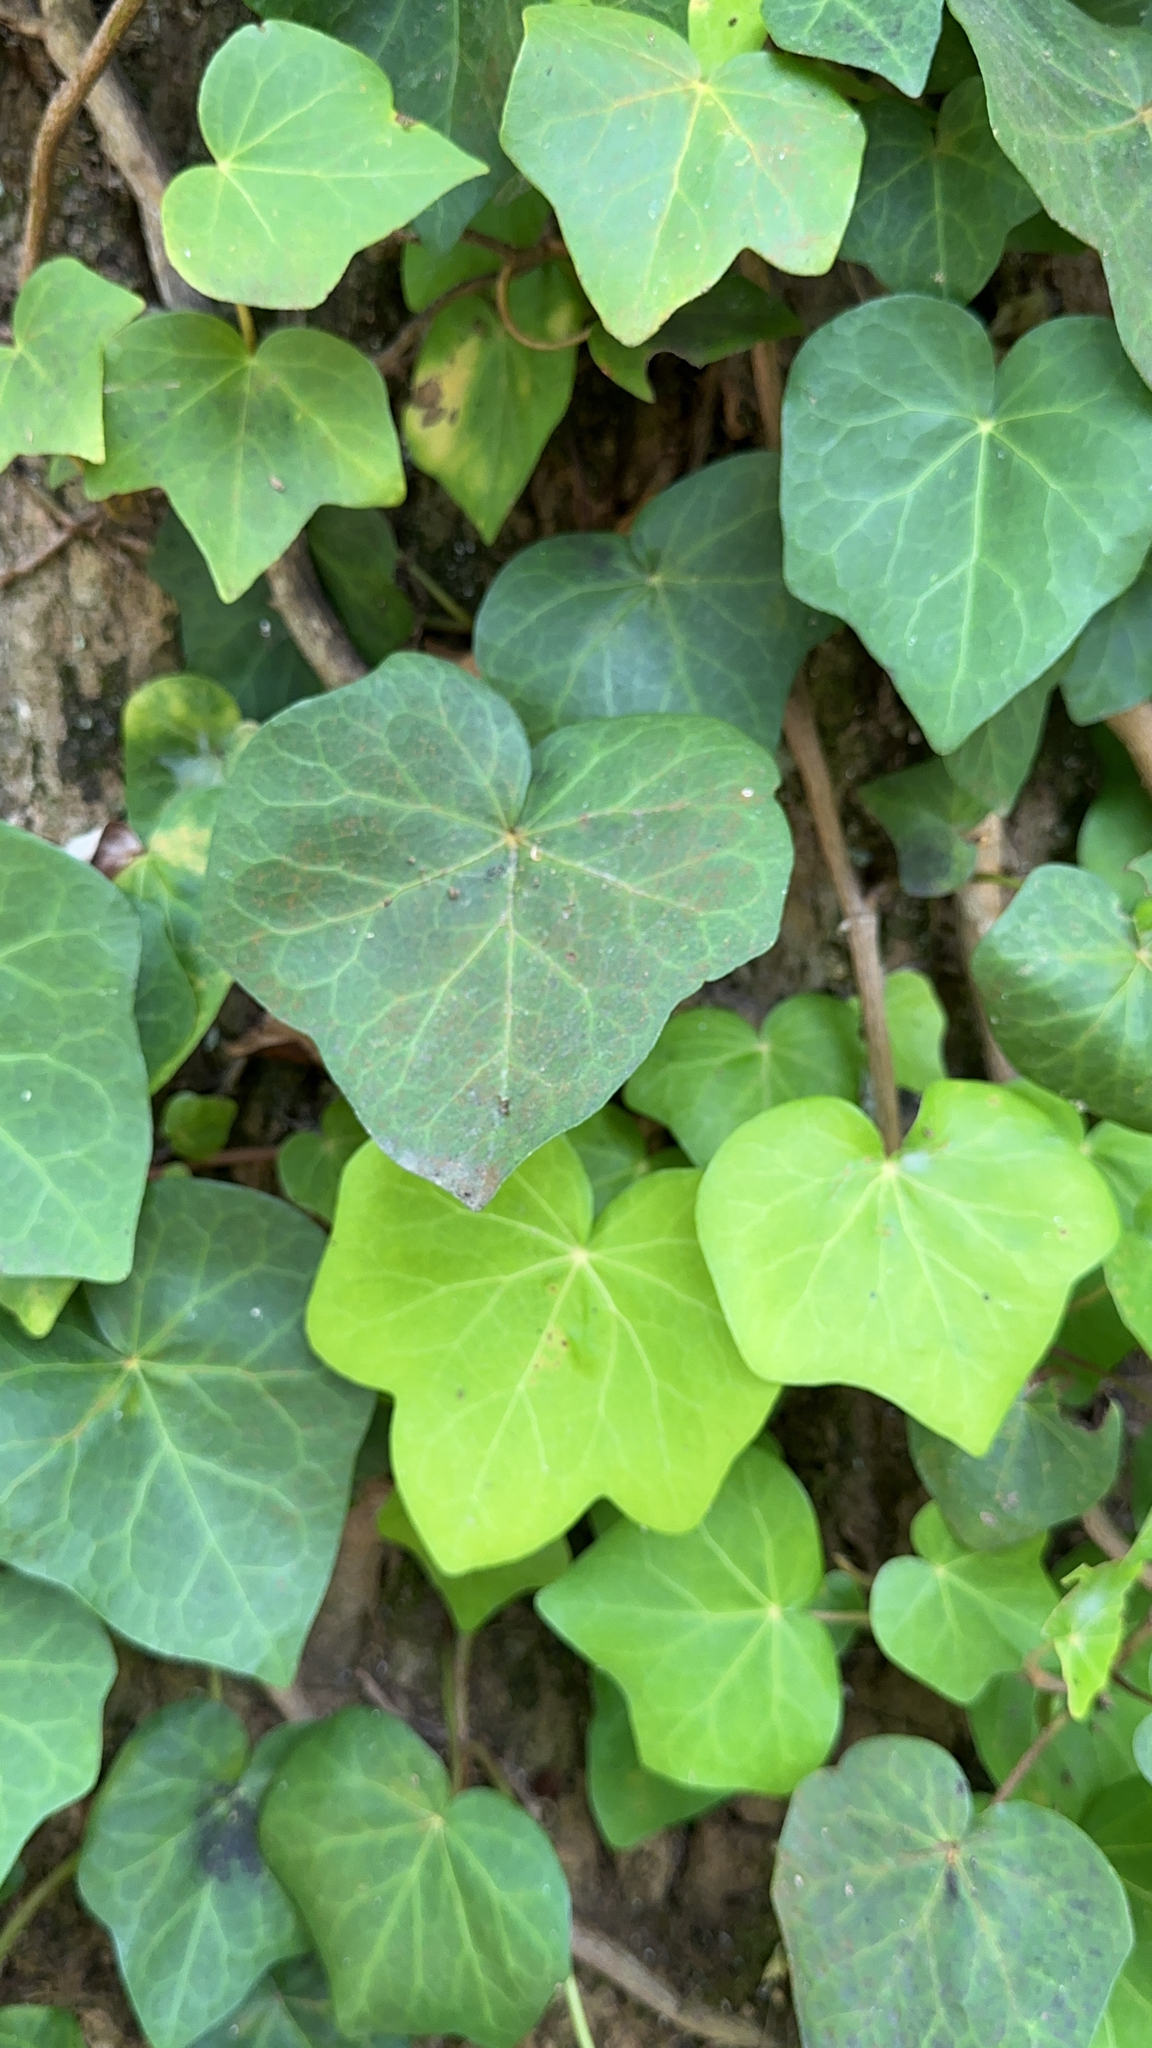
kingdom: Plantae
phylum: Tracheophyta
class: Magnoliopsida
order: Apiales
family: Araliaceae
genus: Hedera
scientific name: Hedera azorica
